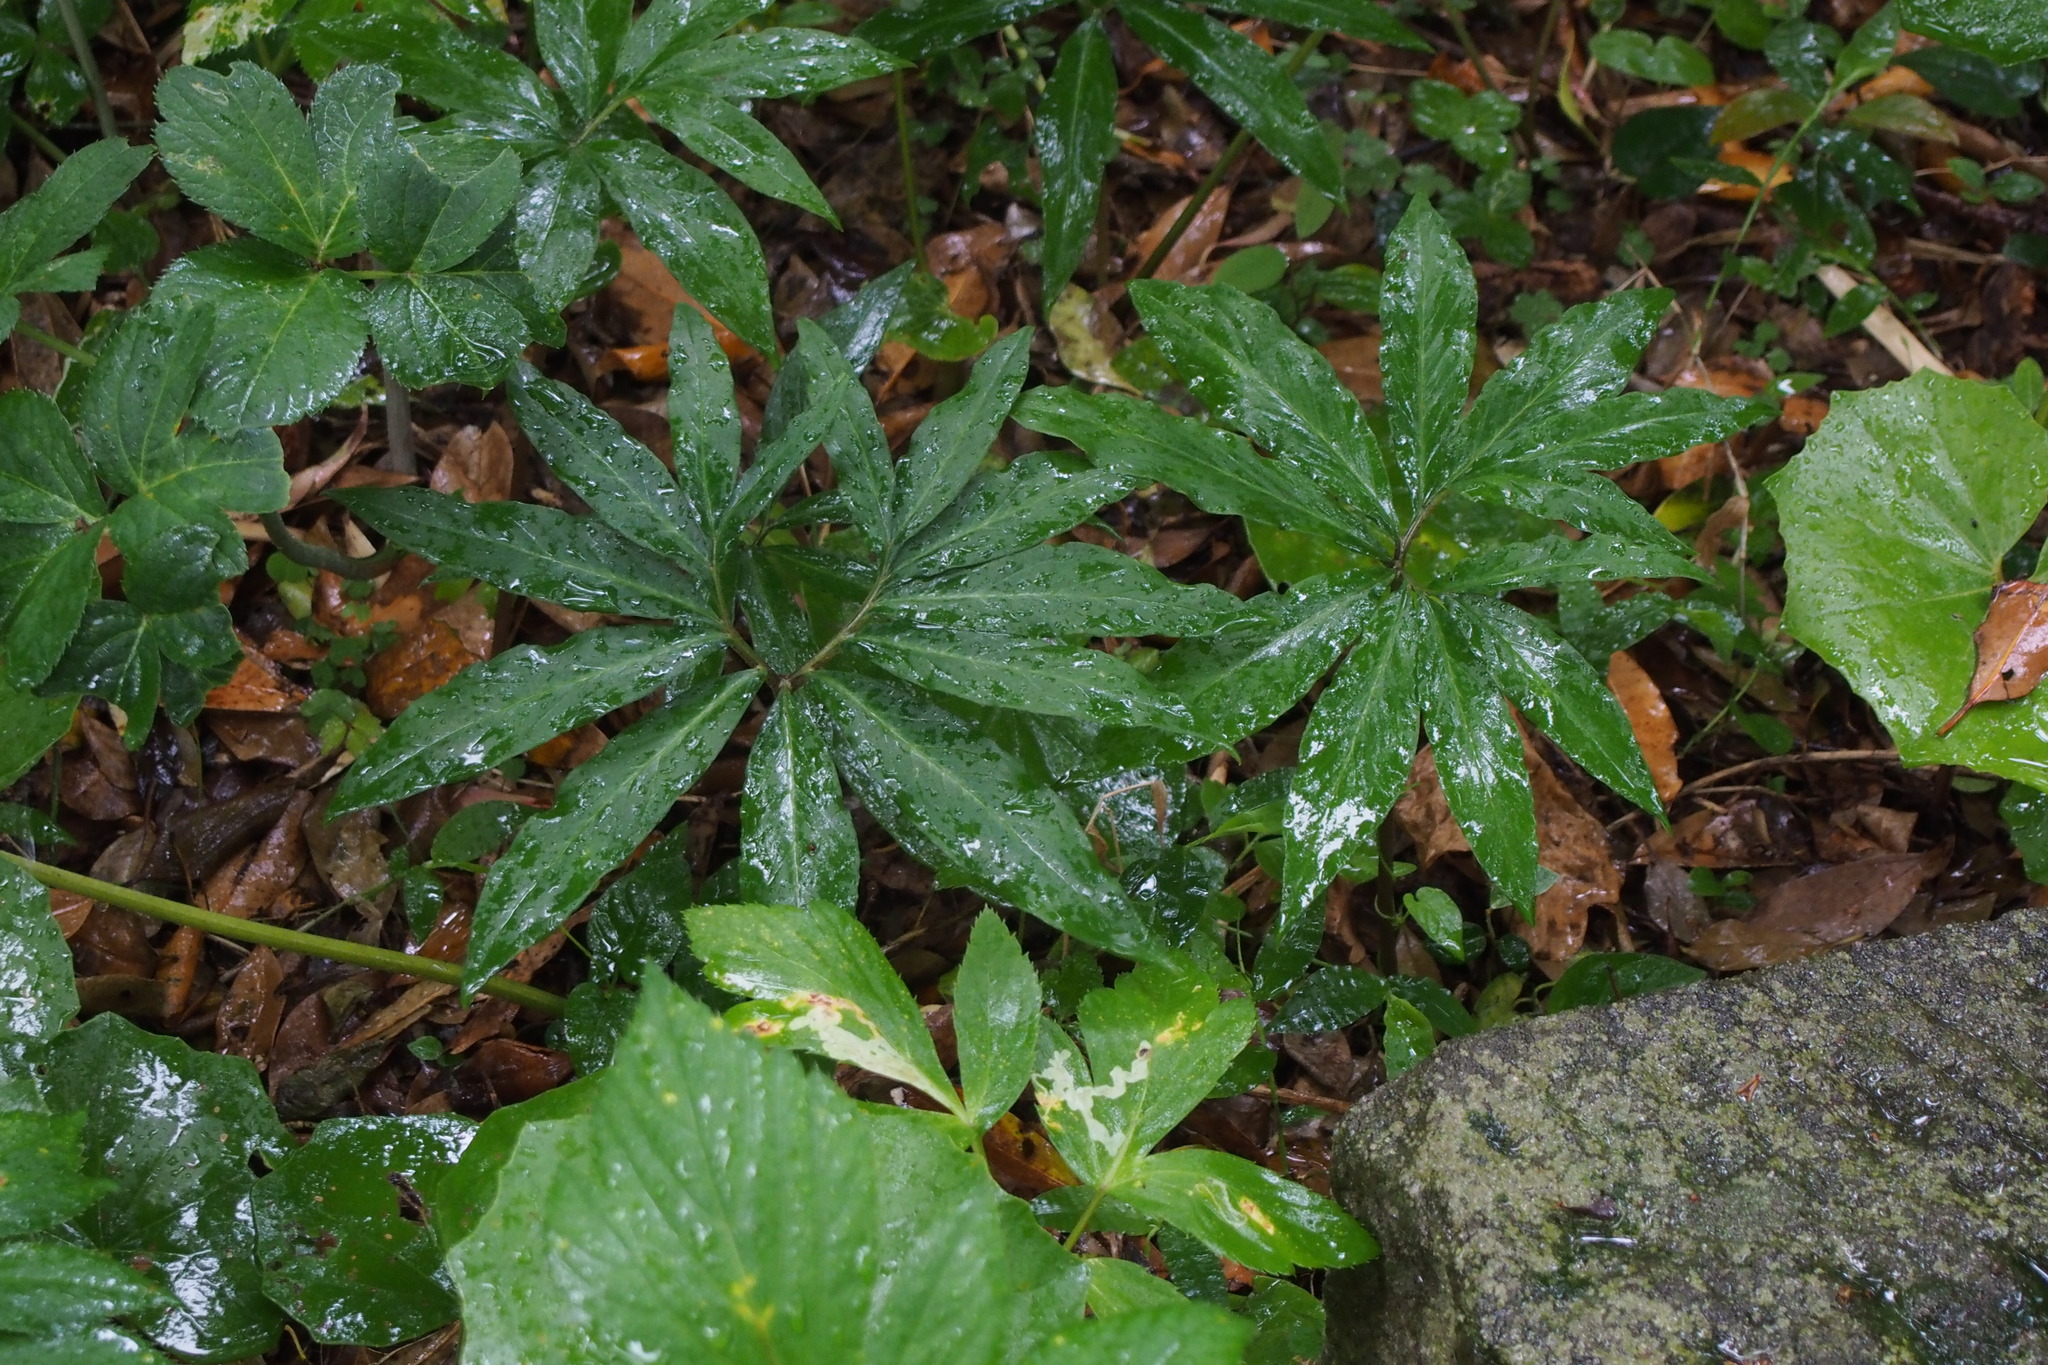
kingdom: Plantae
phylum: Tracheophyta
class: Liliopsida
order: Alismatales
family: Araceae
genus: Arisaema
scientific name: Arisaema thunbergii
